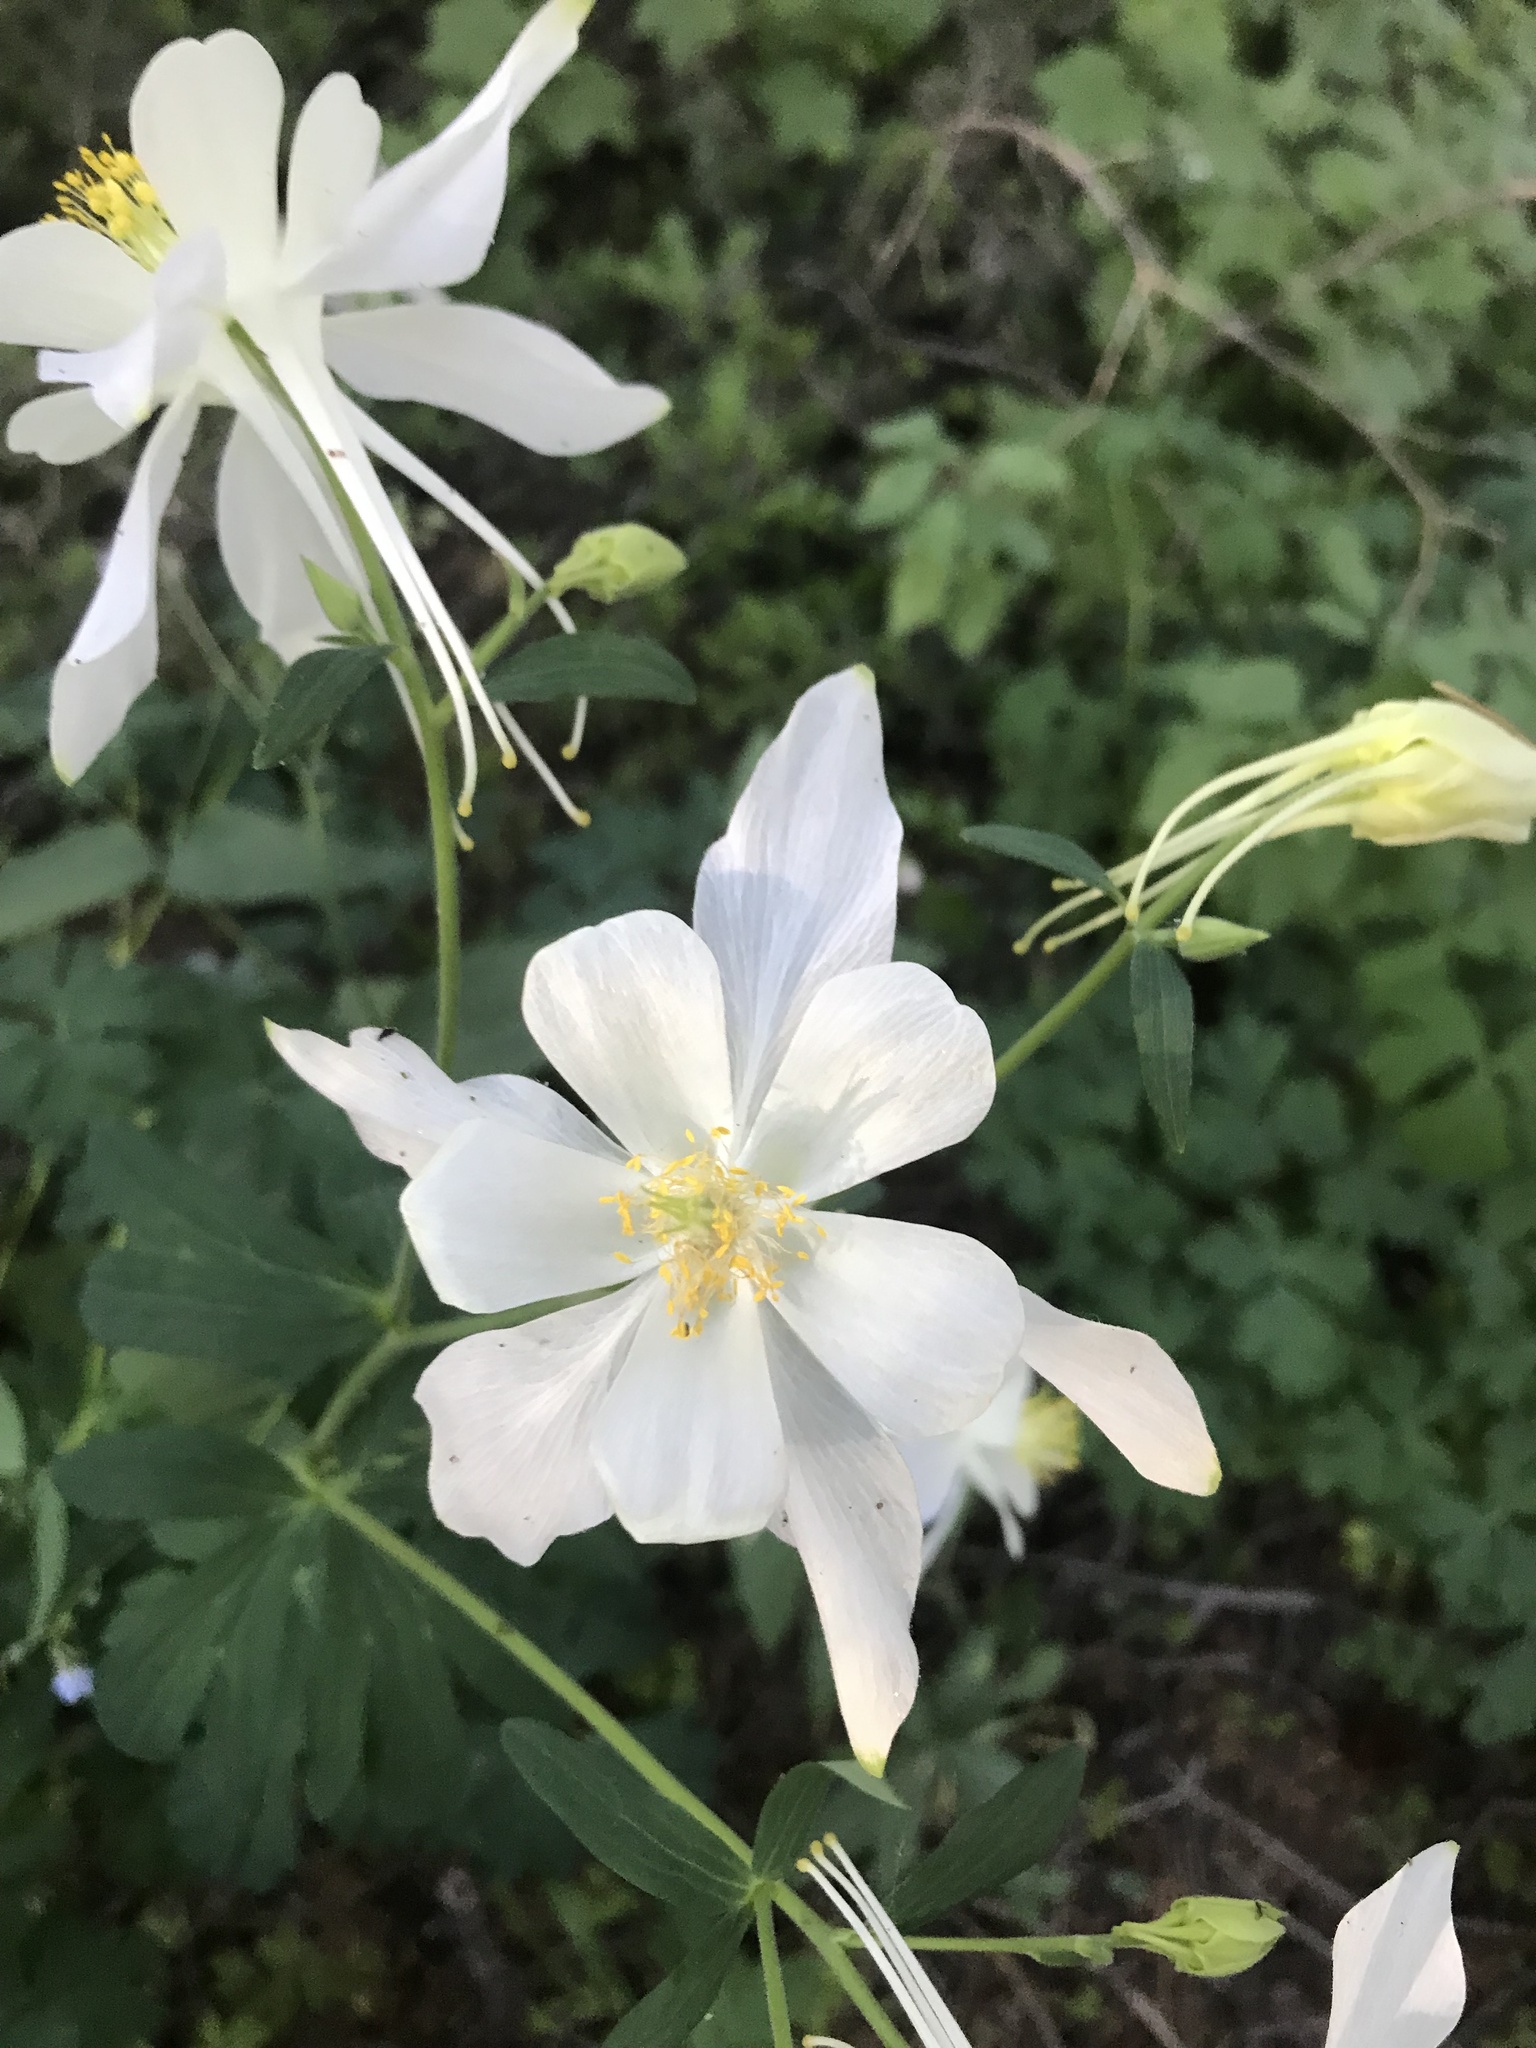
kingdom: Plantae
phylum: Tracheophyta
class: Magnoliopsida
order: Ranunculales
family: Ranunculaceae
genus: Aquilegia
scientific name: Aquilegia coerulea
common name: Rocky mountain columbine
